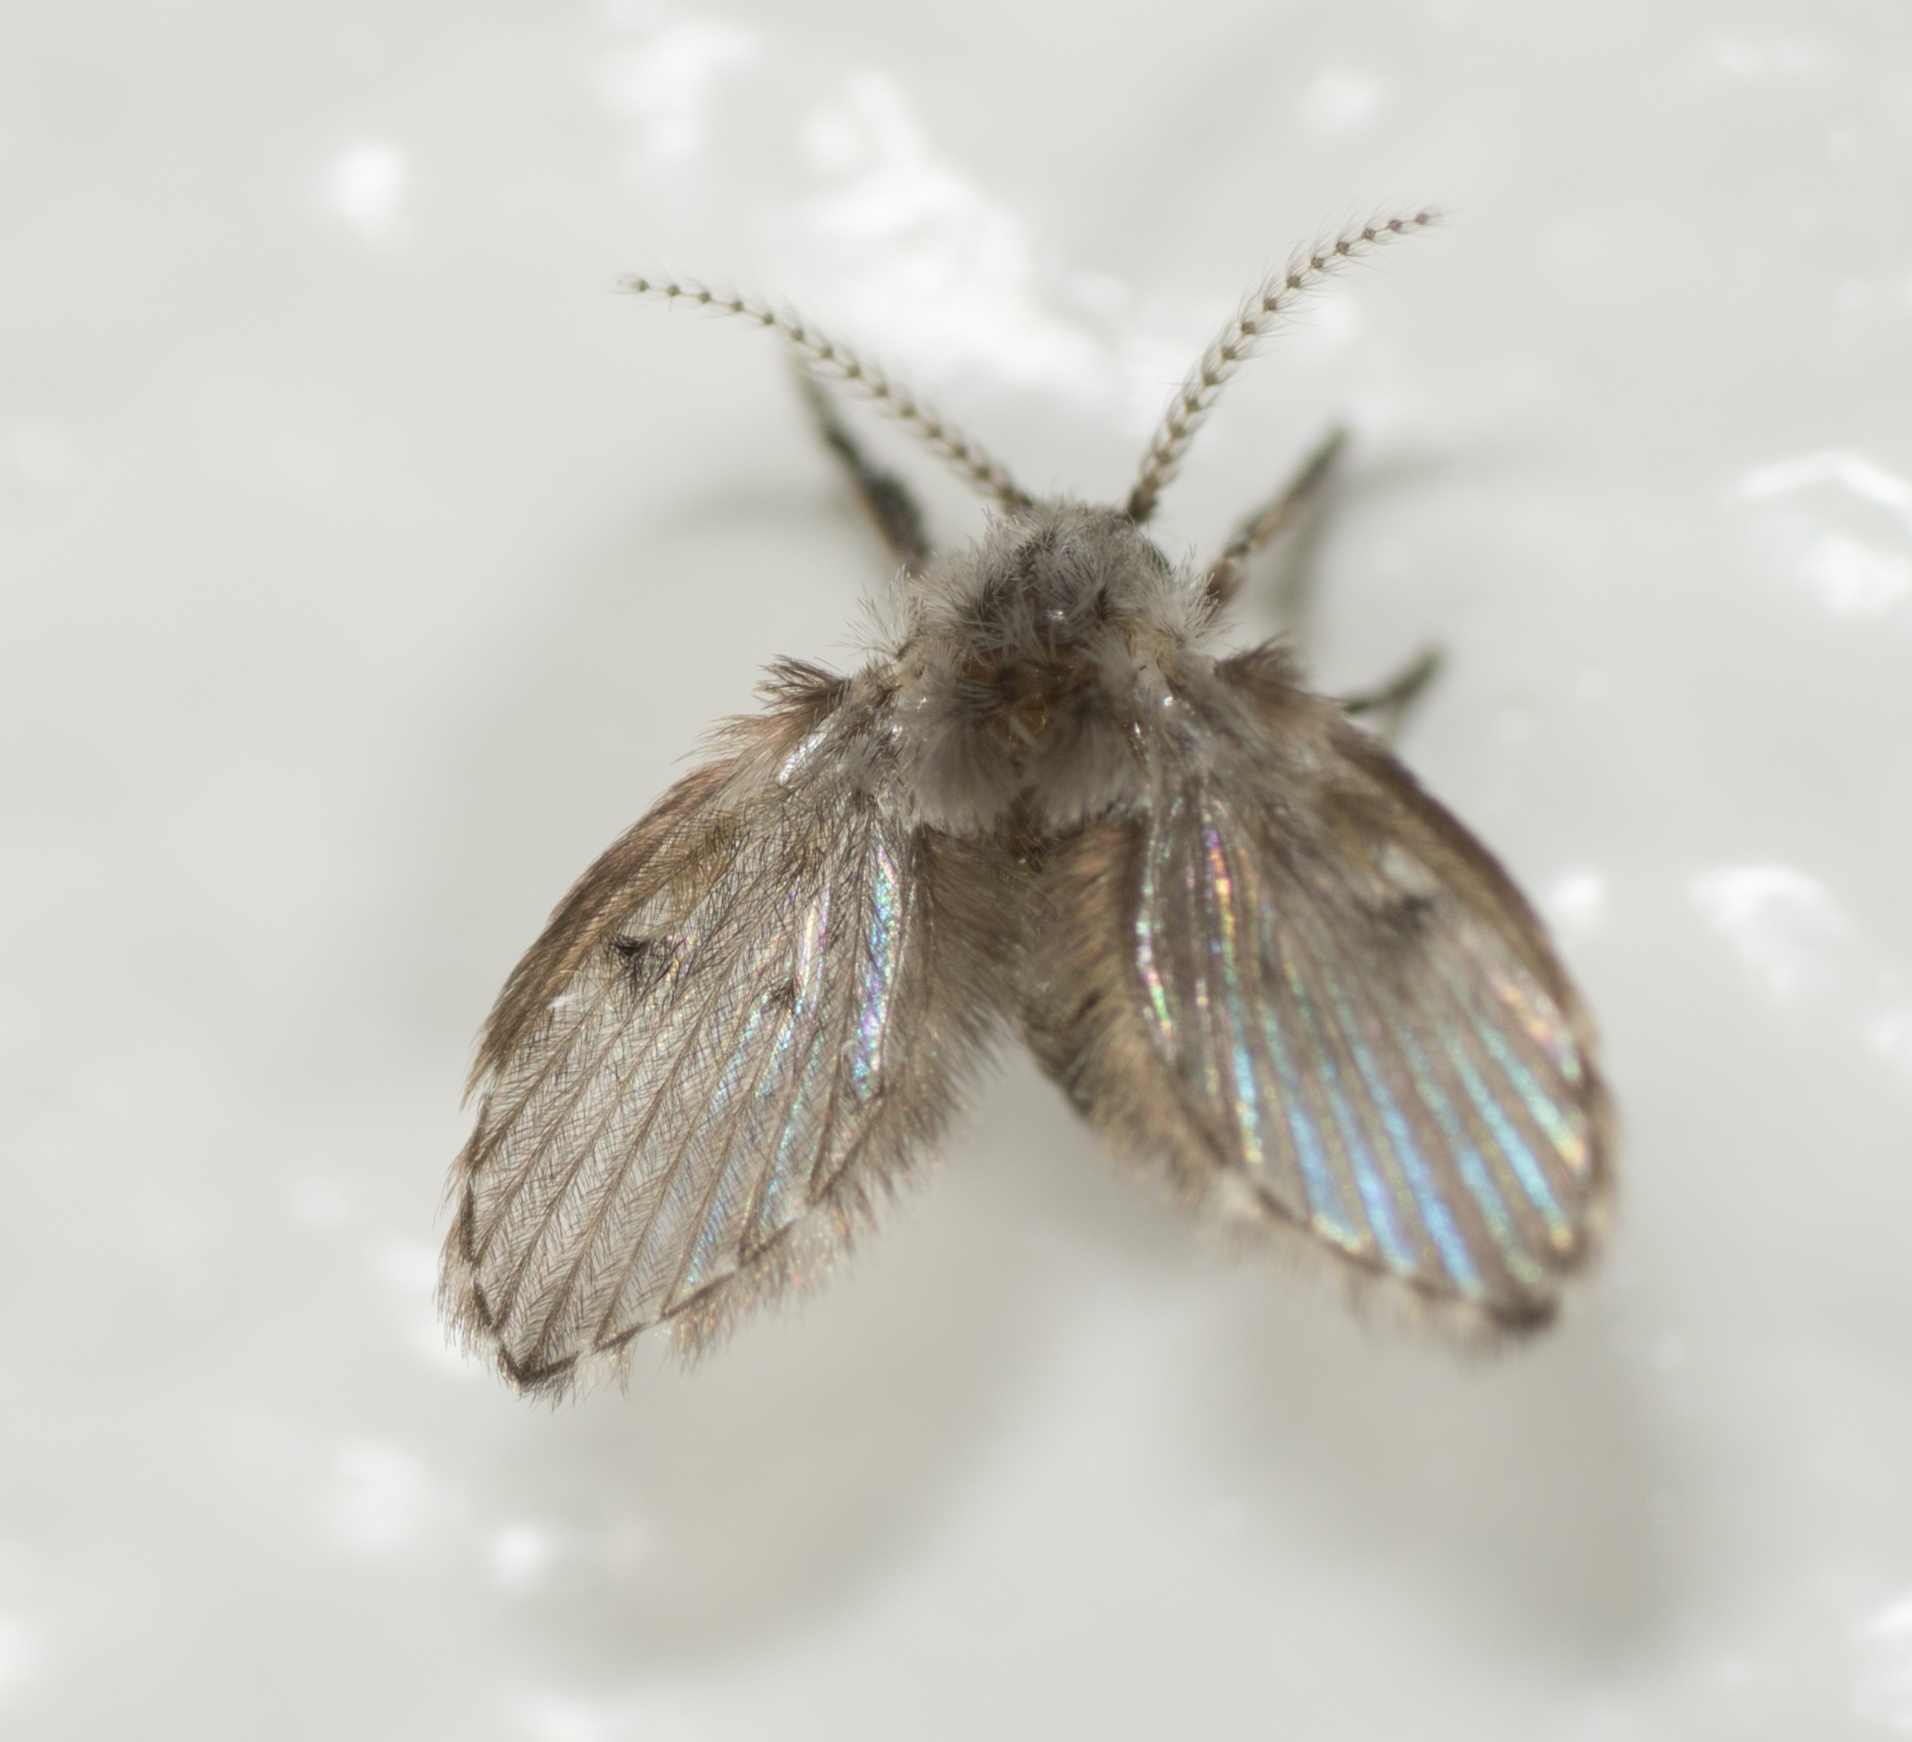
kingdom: Animalia
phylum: Arthropoda
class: Insecta
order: Diptera
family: Psychodidae
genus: Clogmia
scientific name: Clogmia albipunctatus
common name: White-spotted moth fly
